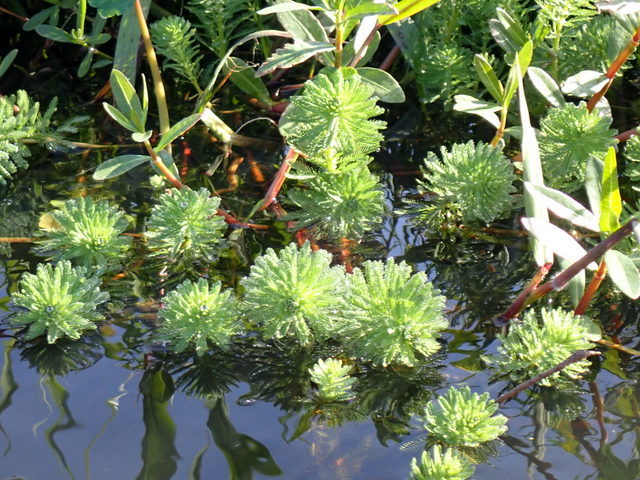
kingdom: Plantae
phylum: Tracheophyta
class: Magnoliopsida
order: Saxifragales
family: Haloragaceae
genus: Myriophyllum
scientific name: Myriophyllum aquaticum
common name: Parrot's feather
